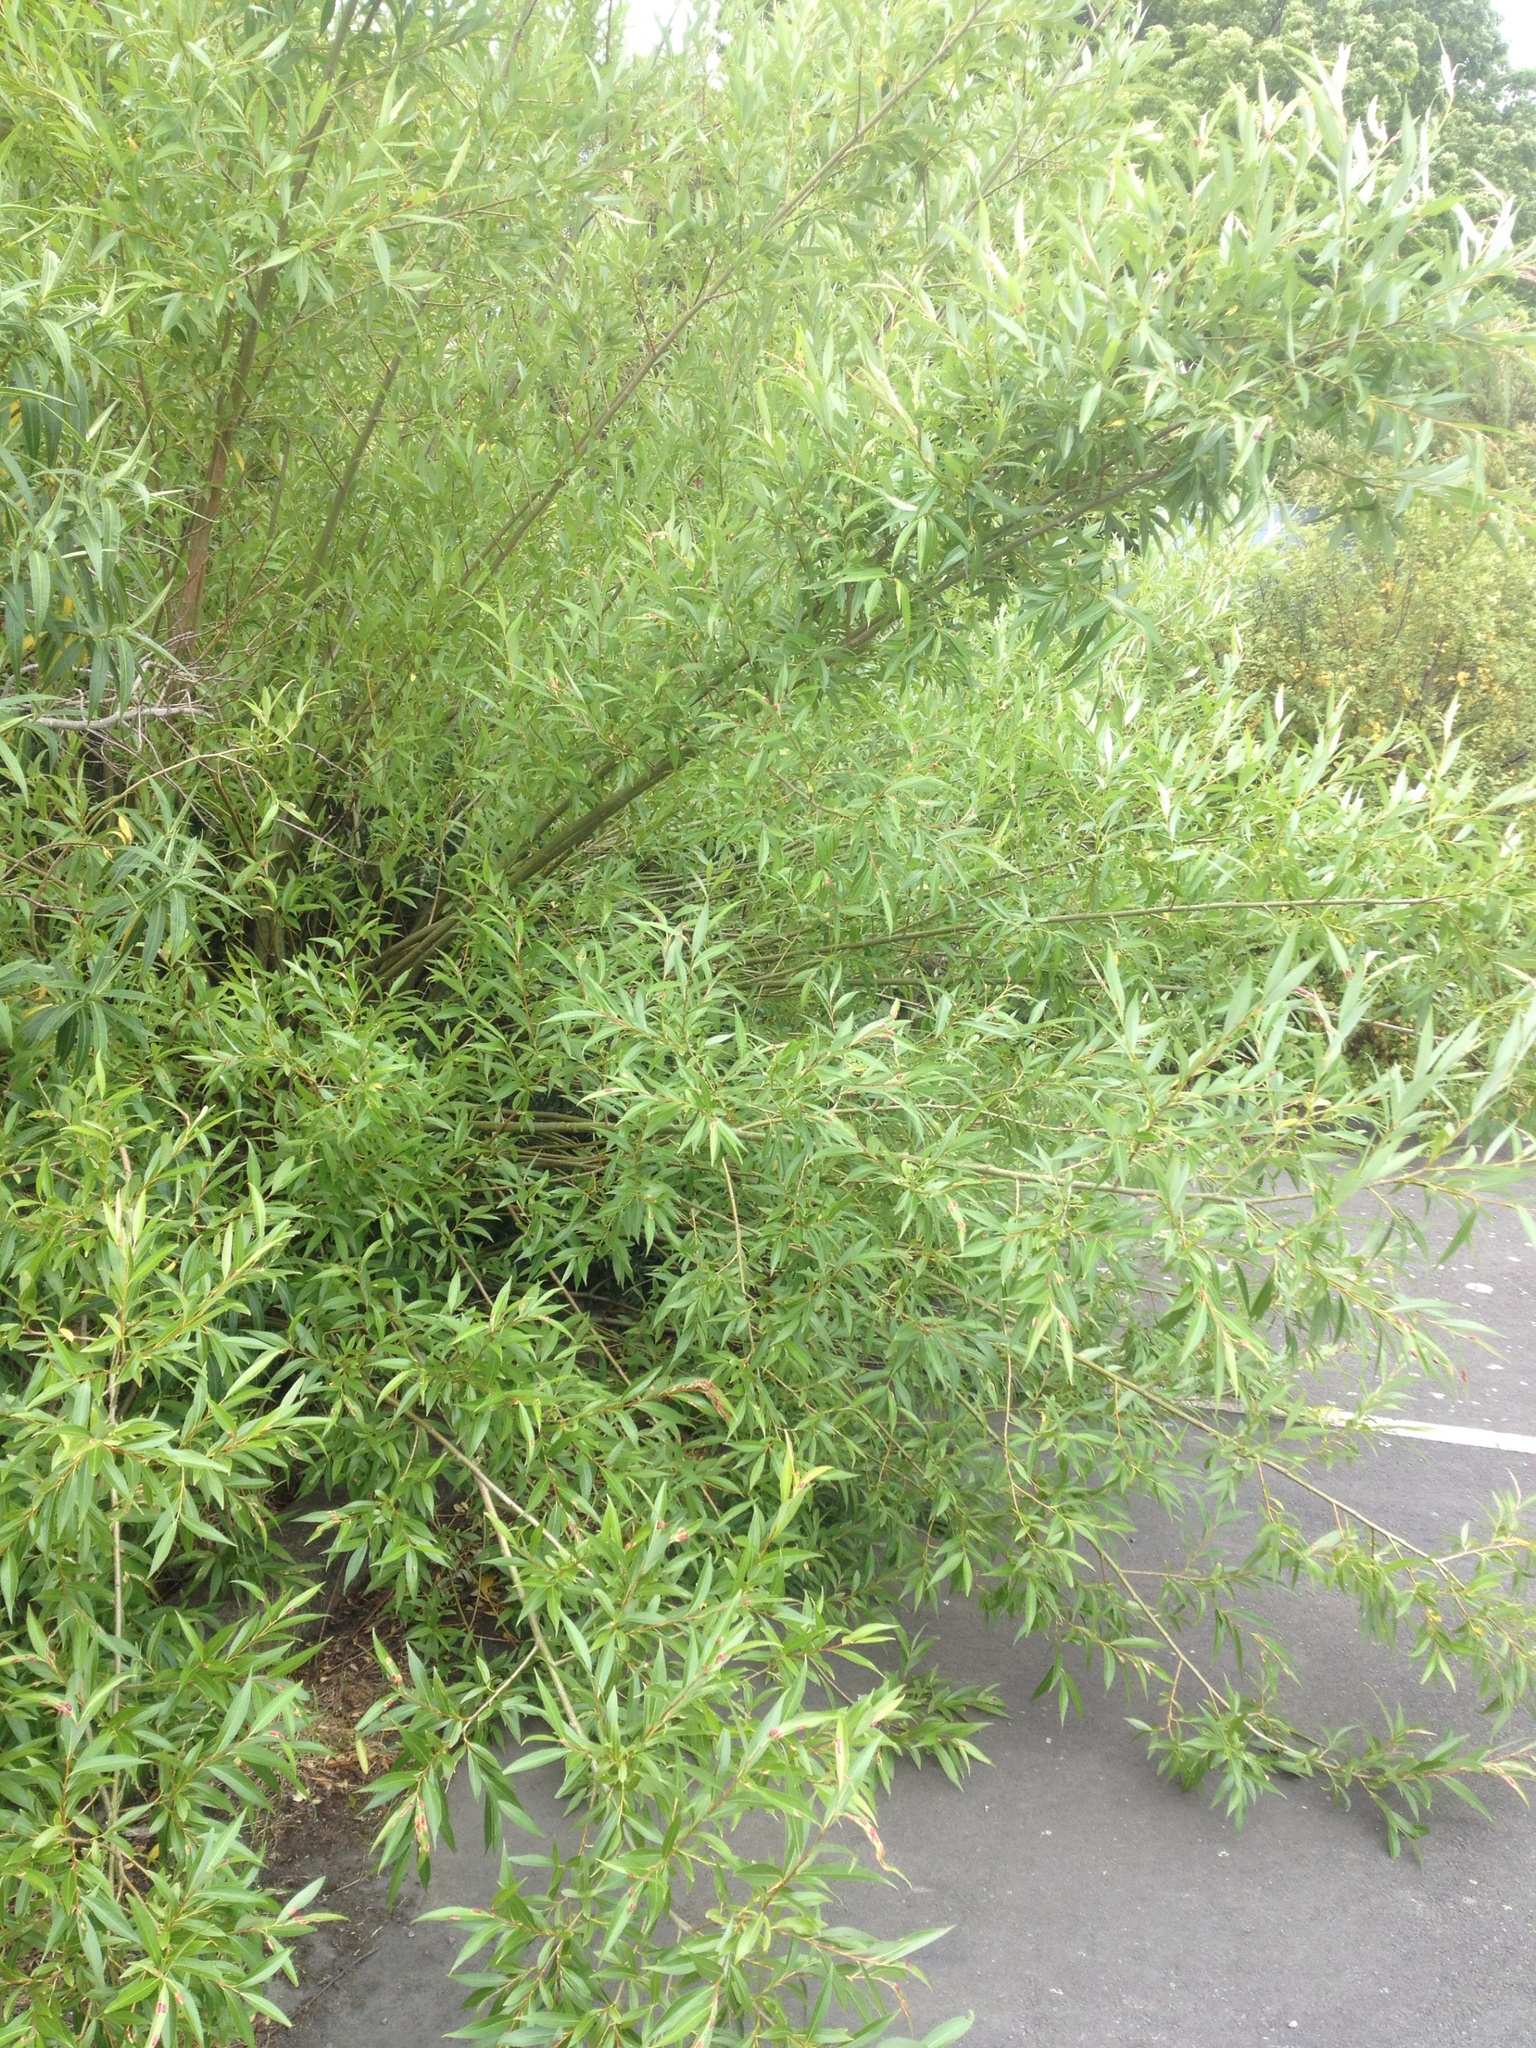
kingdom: Plantae
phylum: Tracheophyta
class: Magnoliopsida
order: Malpighiales
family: Salicaceae
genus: Salix
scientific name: Salix fragilis
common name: Crack willow
